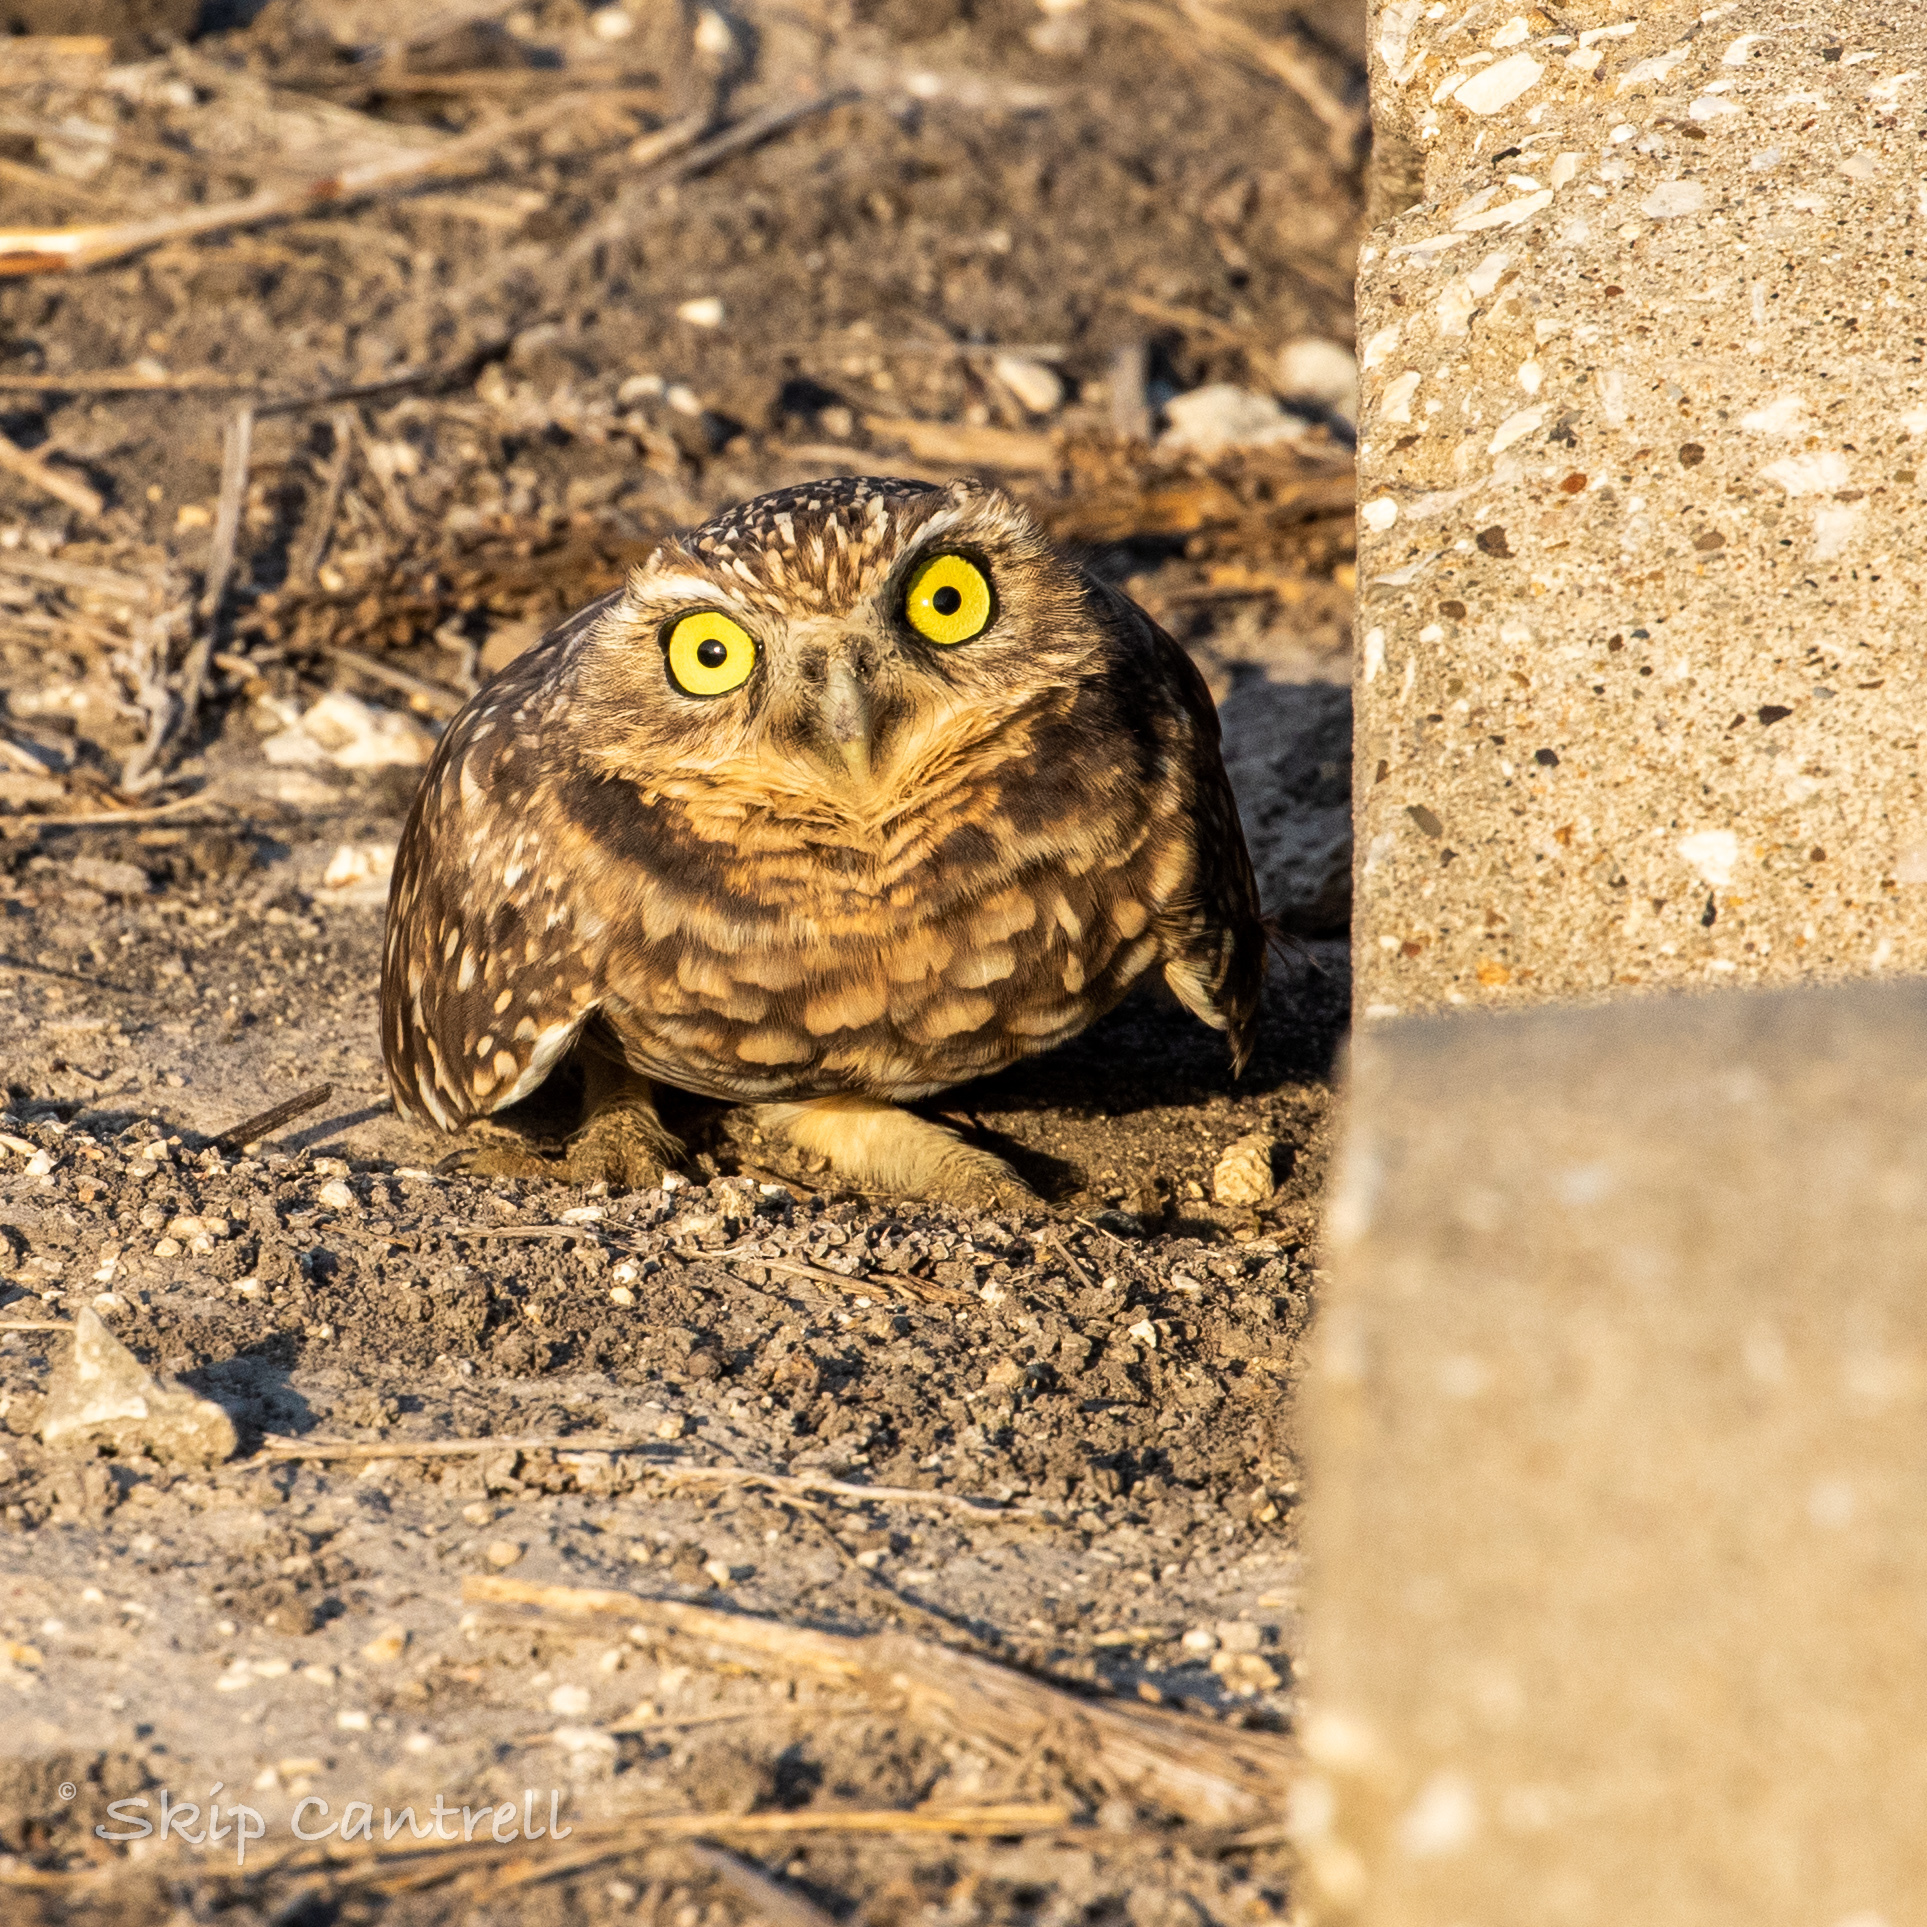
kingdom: Animalia
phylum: Chordata
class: Aves
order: Strigiformes
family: Strigidae
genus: Athene
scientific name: Athene cunicularia
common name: Burrowing owl
